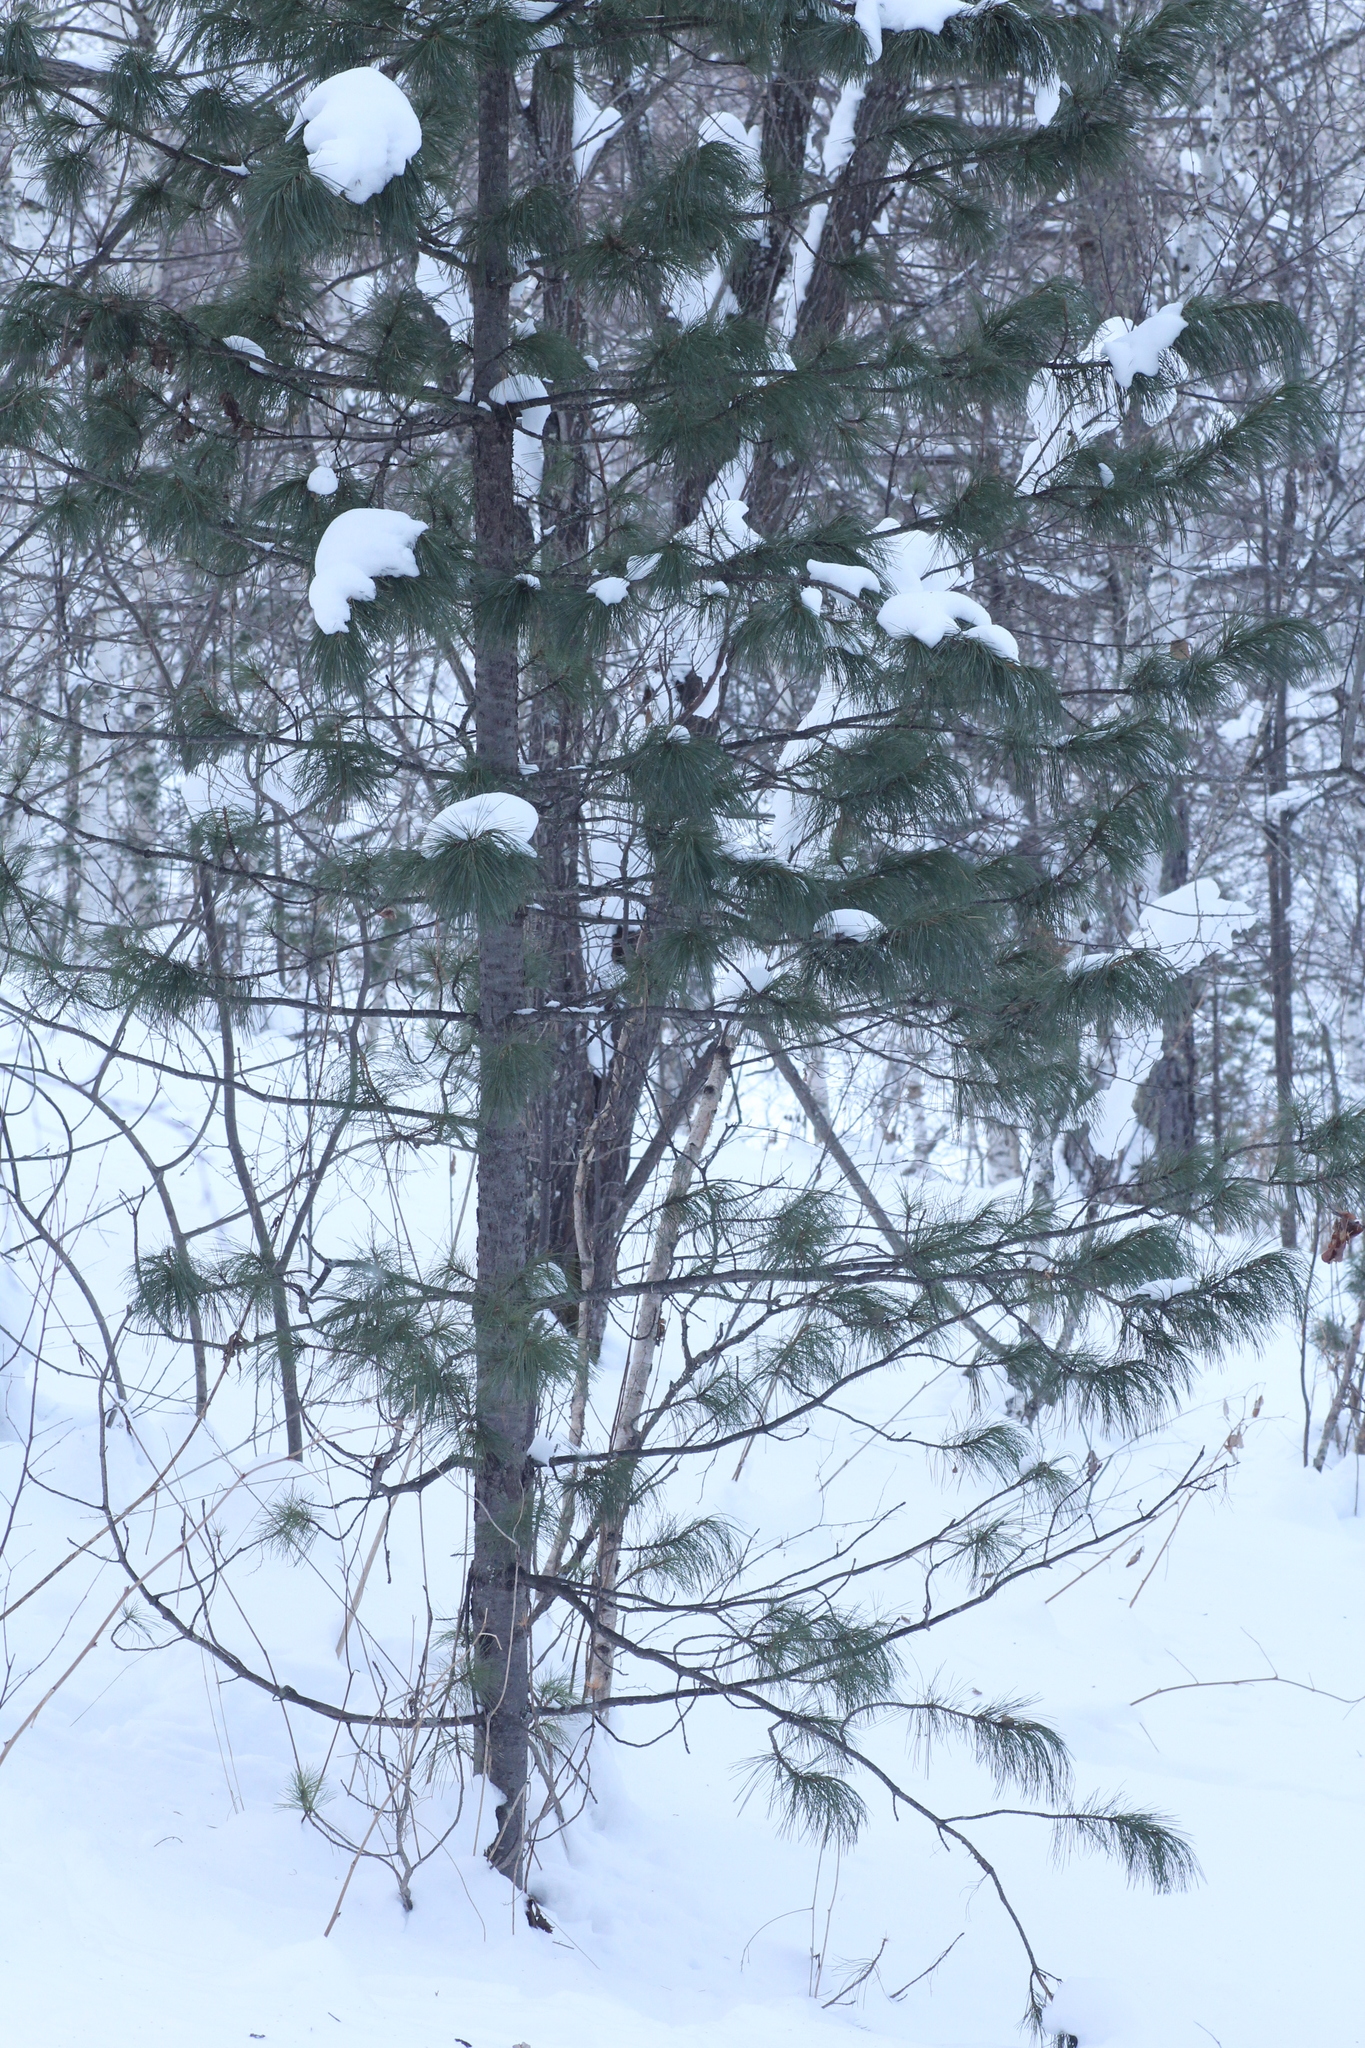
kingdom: Plantae
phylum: Tracheophyta
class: Pinopsida
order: Pinales
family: Pinaceae
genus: Pinus
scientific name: Pinus sibirica
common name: Siberian pine
